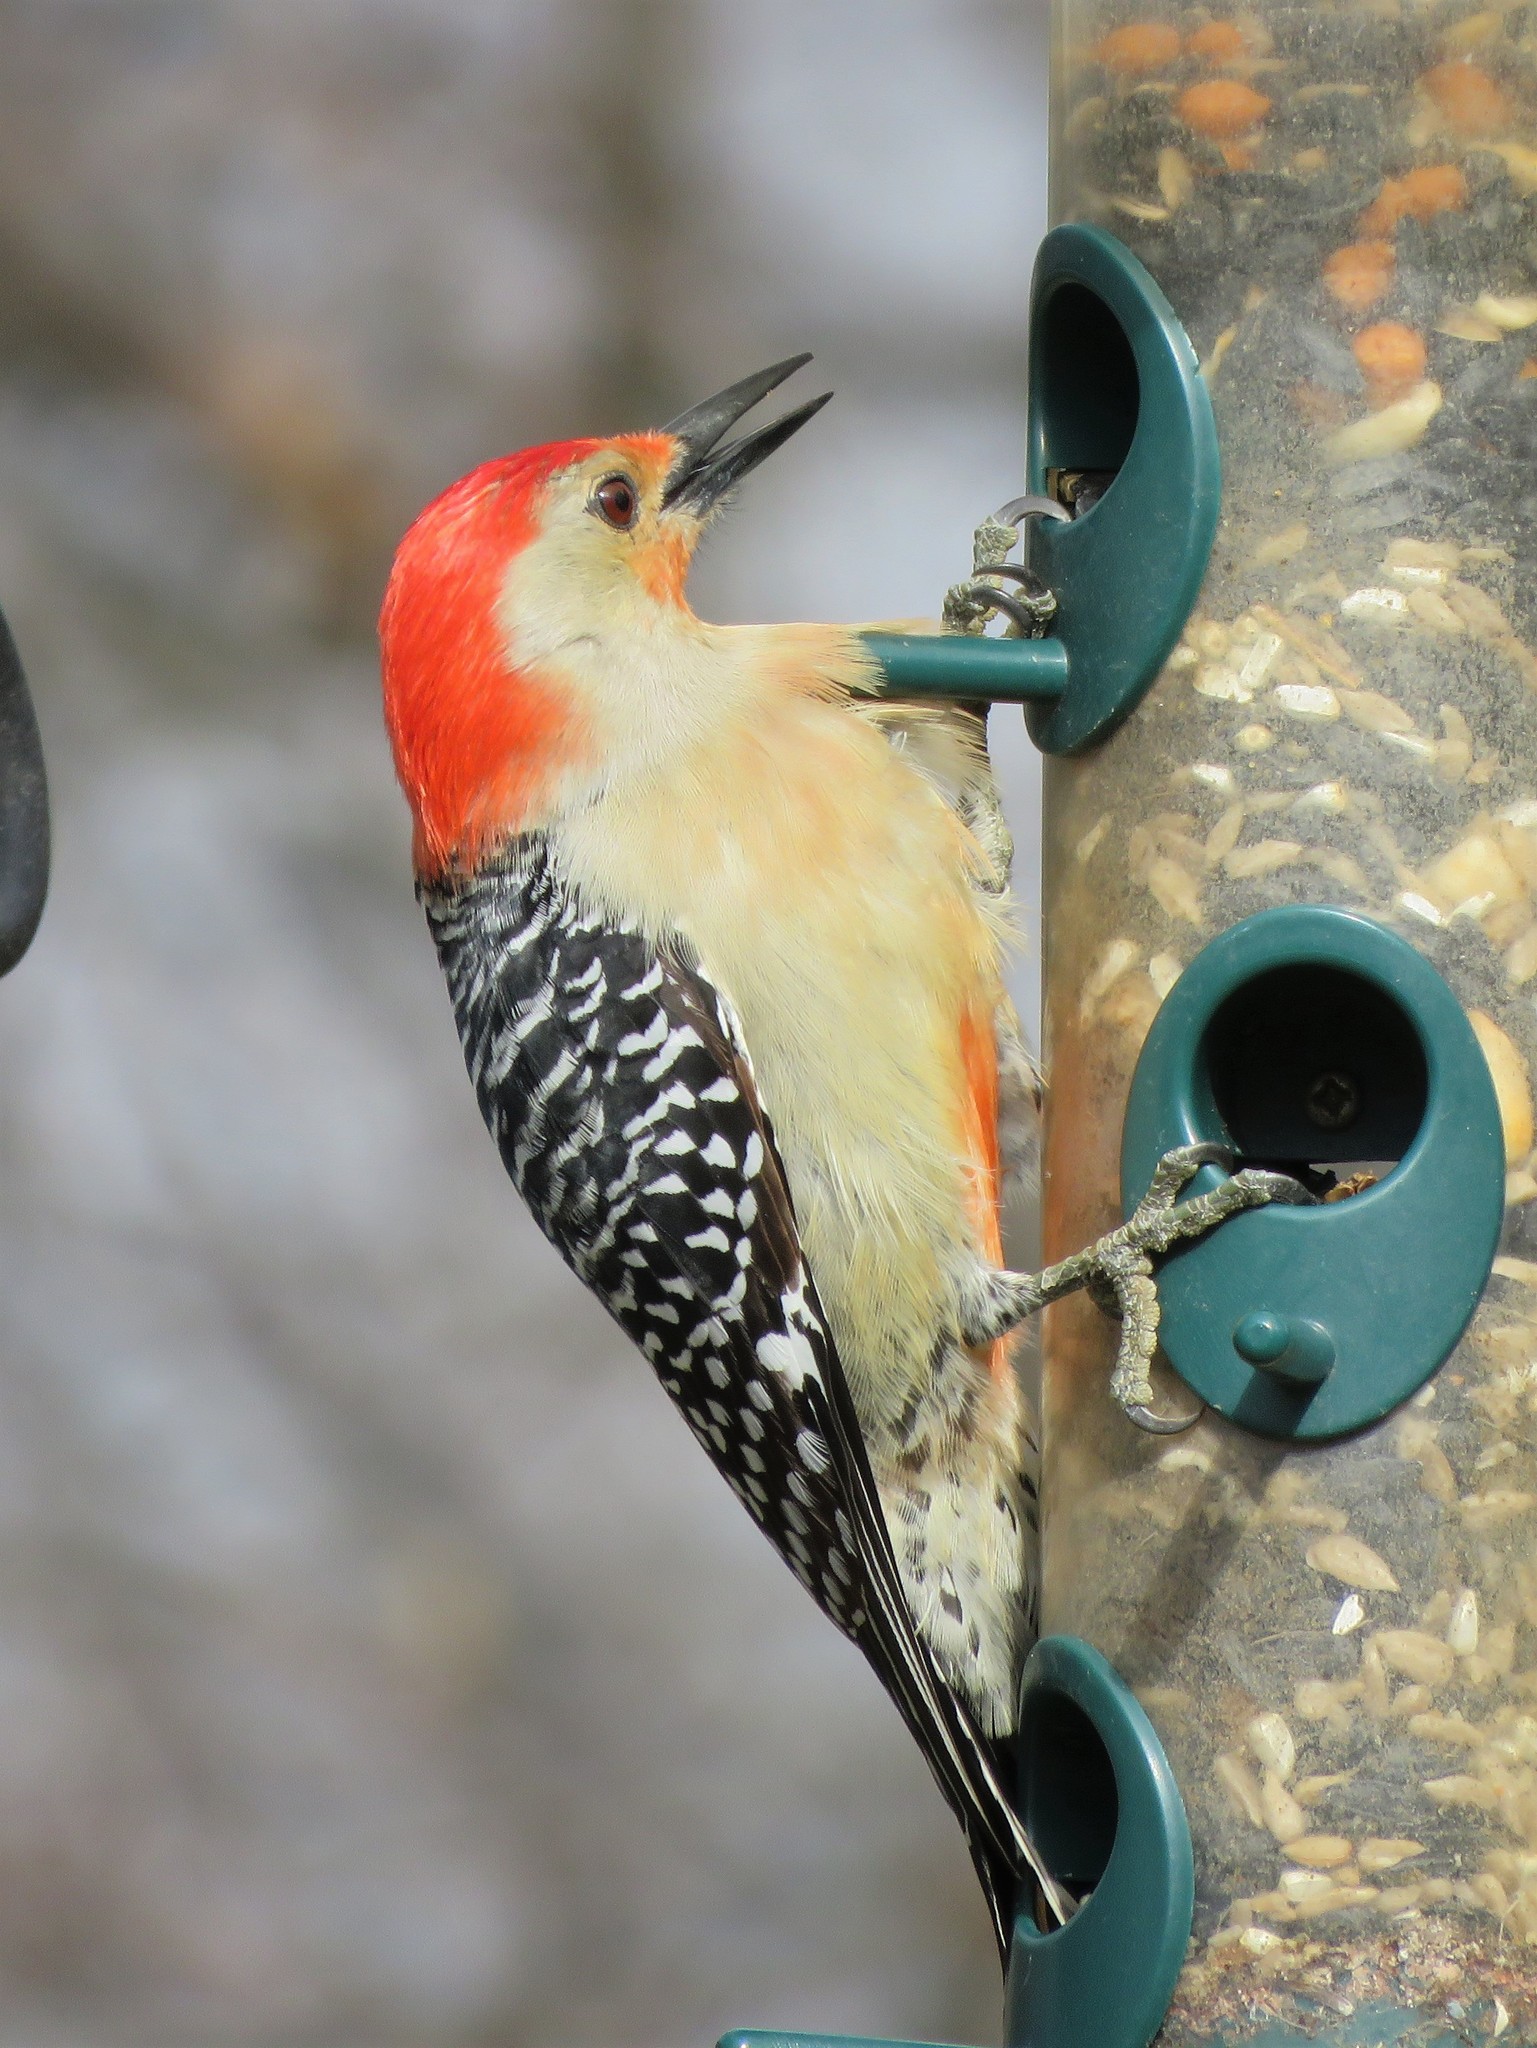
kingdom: Animalia
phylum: Chordata
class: Aves
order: Piciformes
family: Picidae
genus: Melanerpes
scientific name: Melanerpes carolinus
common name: Red-bellied woodpecker
